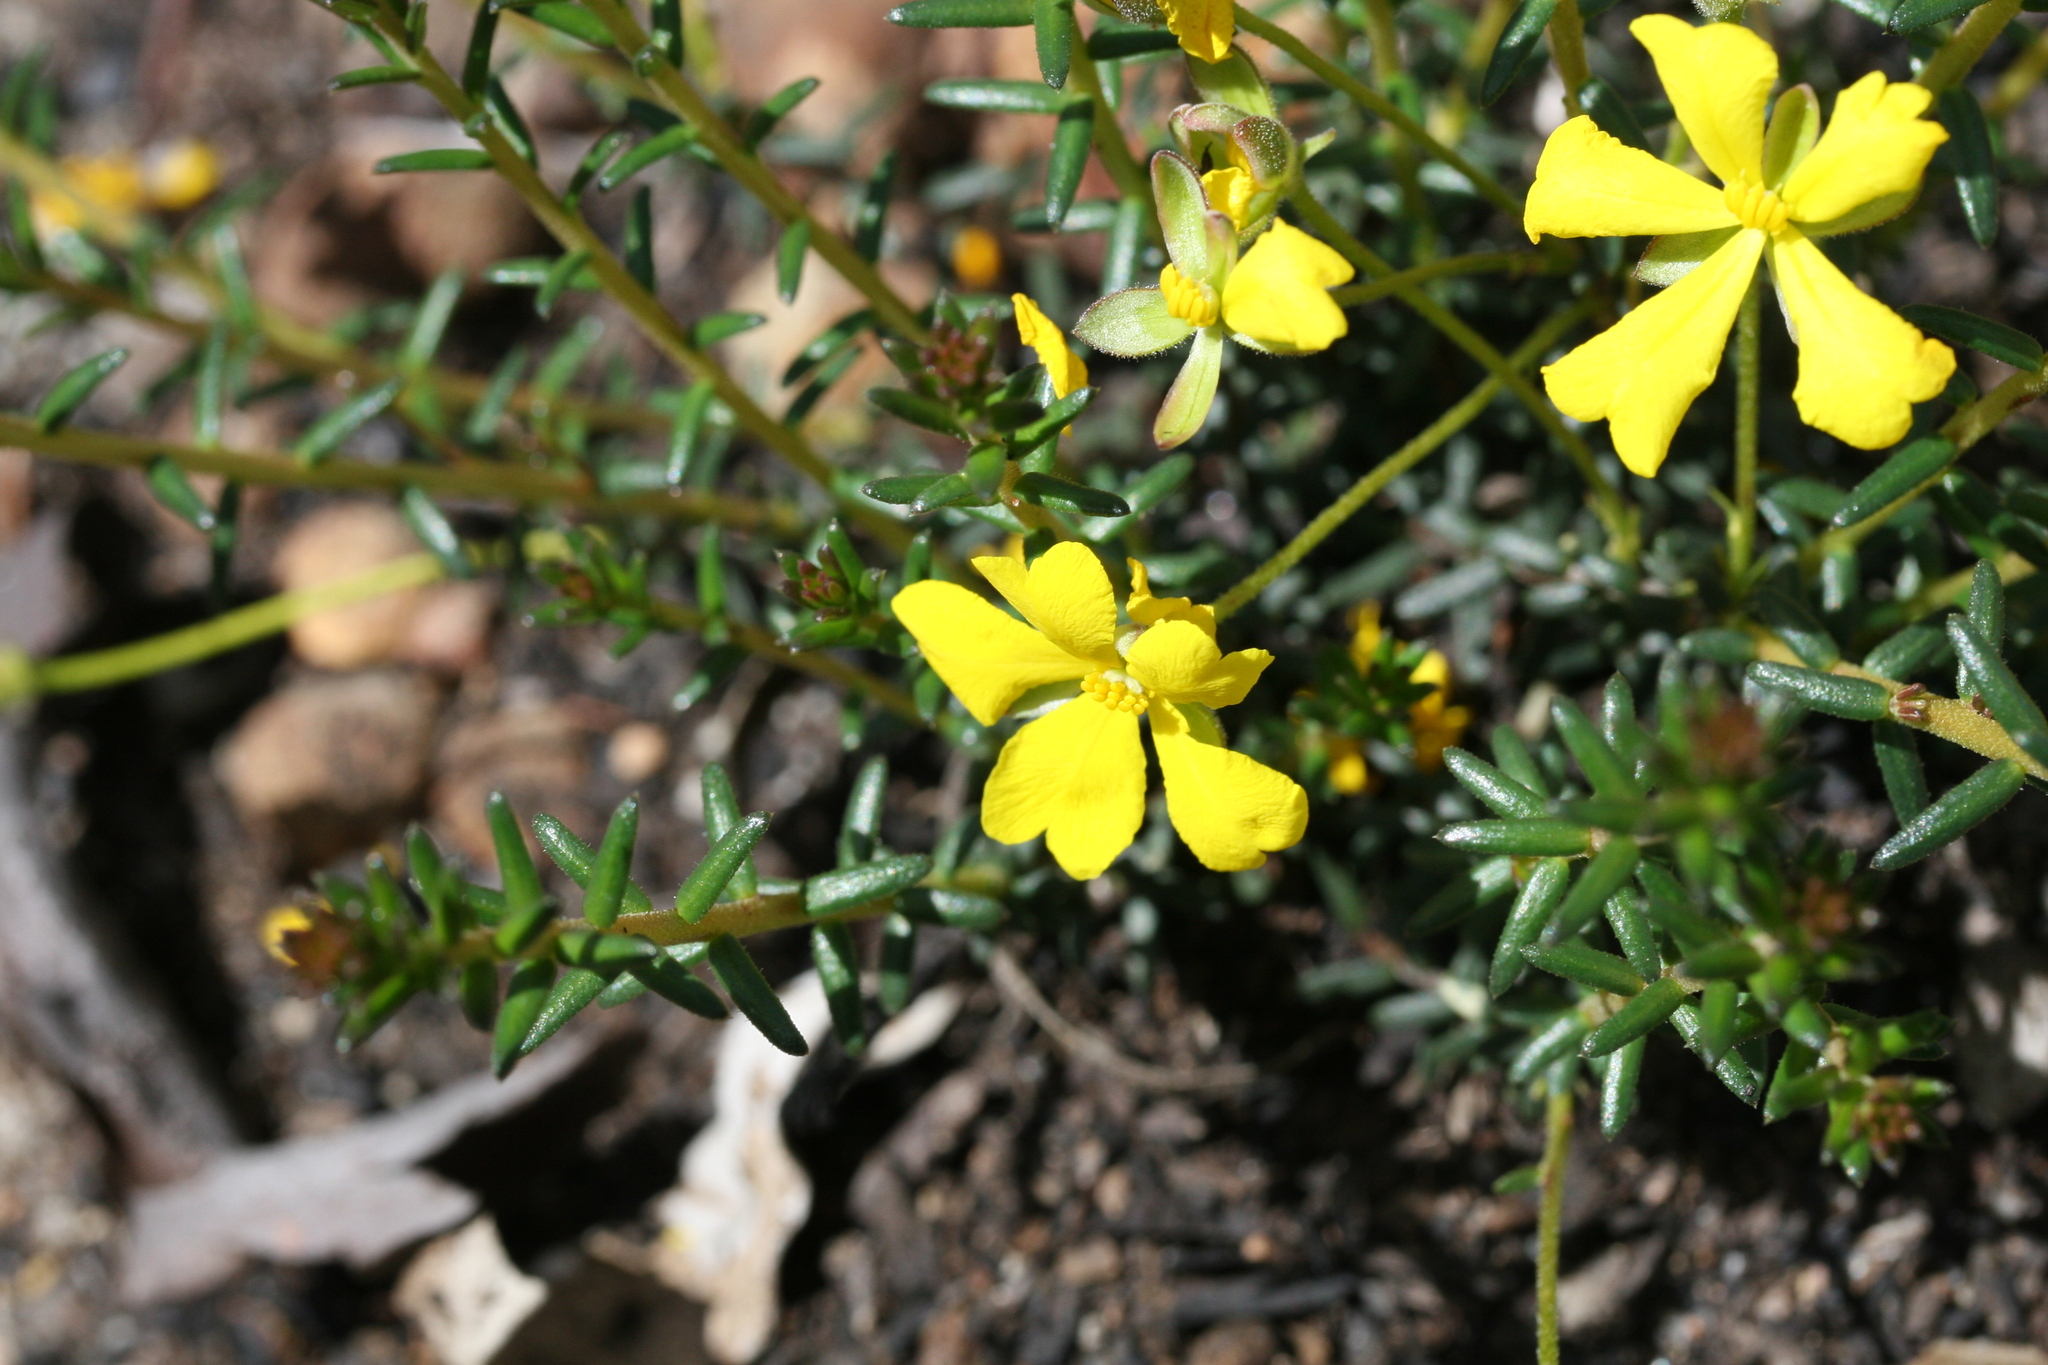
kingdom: Plantae
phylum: Tracheophyta
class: Magnoliopsida
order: Dilleniales
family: Dilleniaceae
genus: Hibbertia
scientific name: Hibbertia polyancistra
